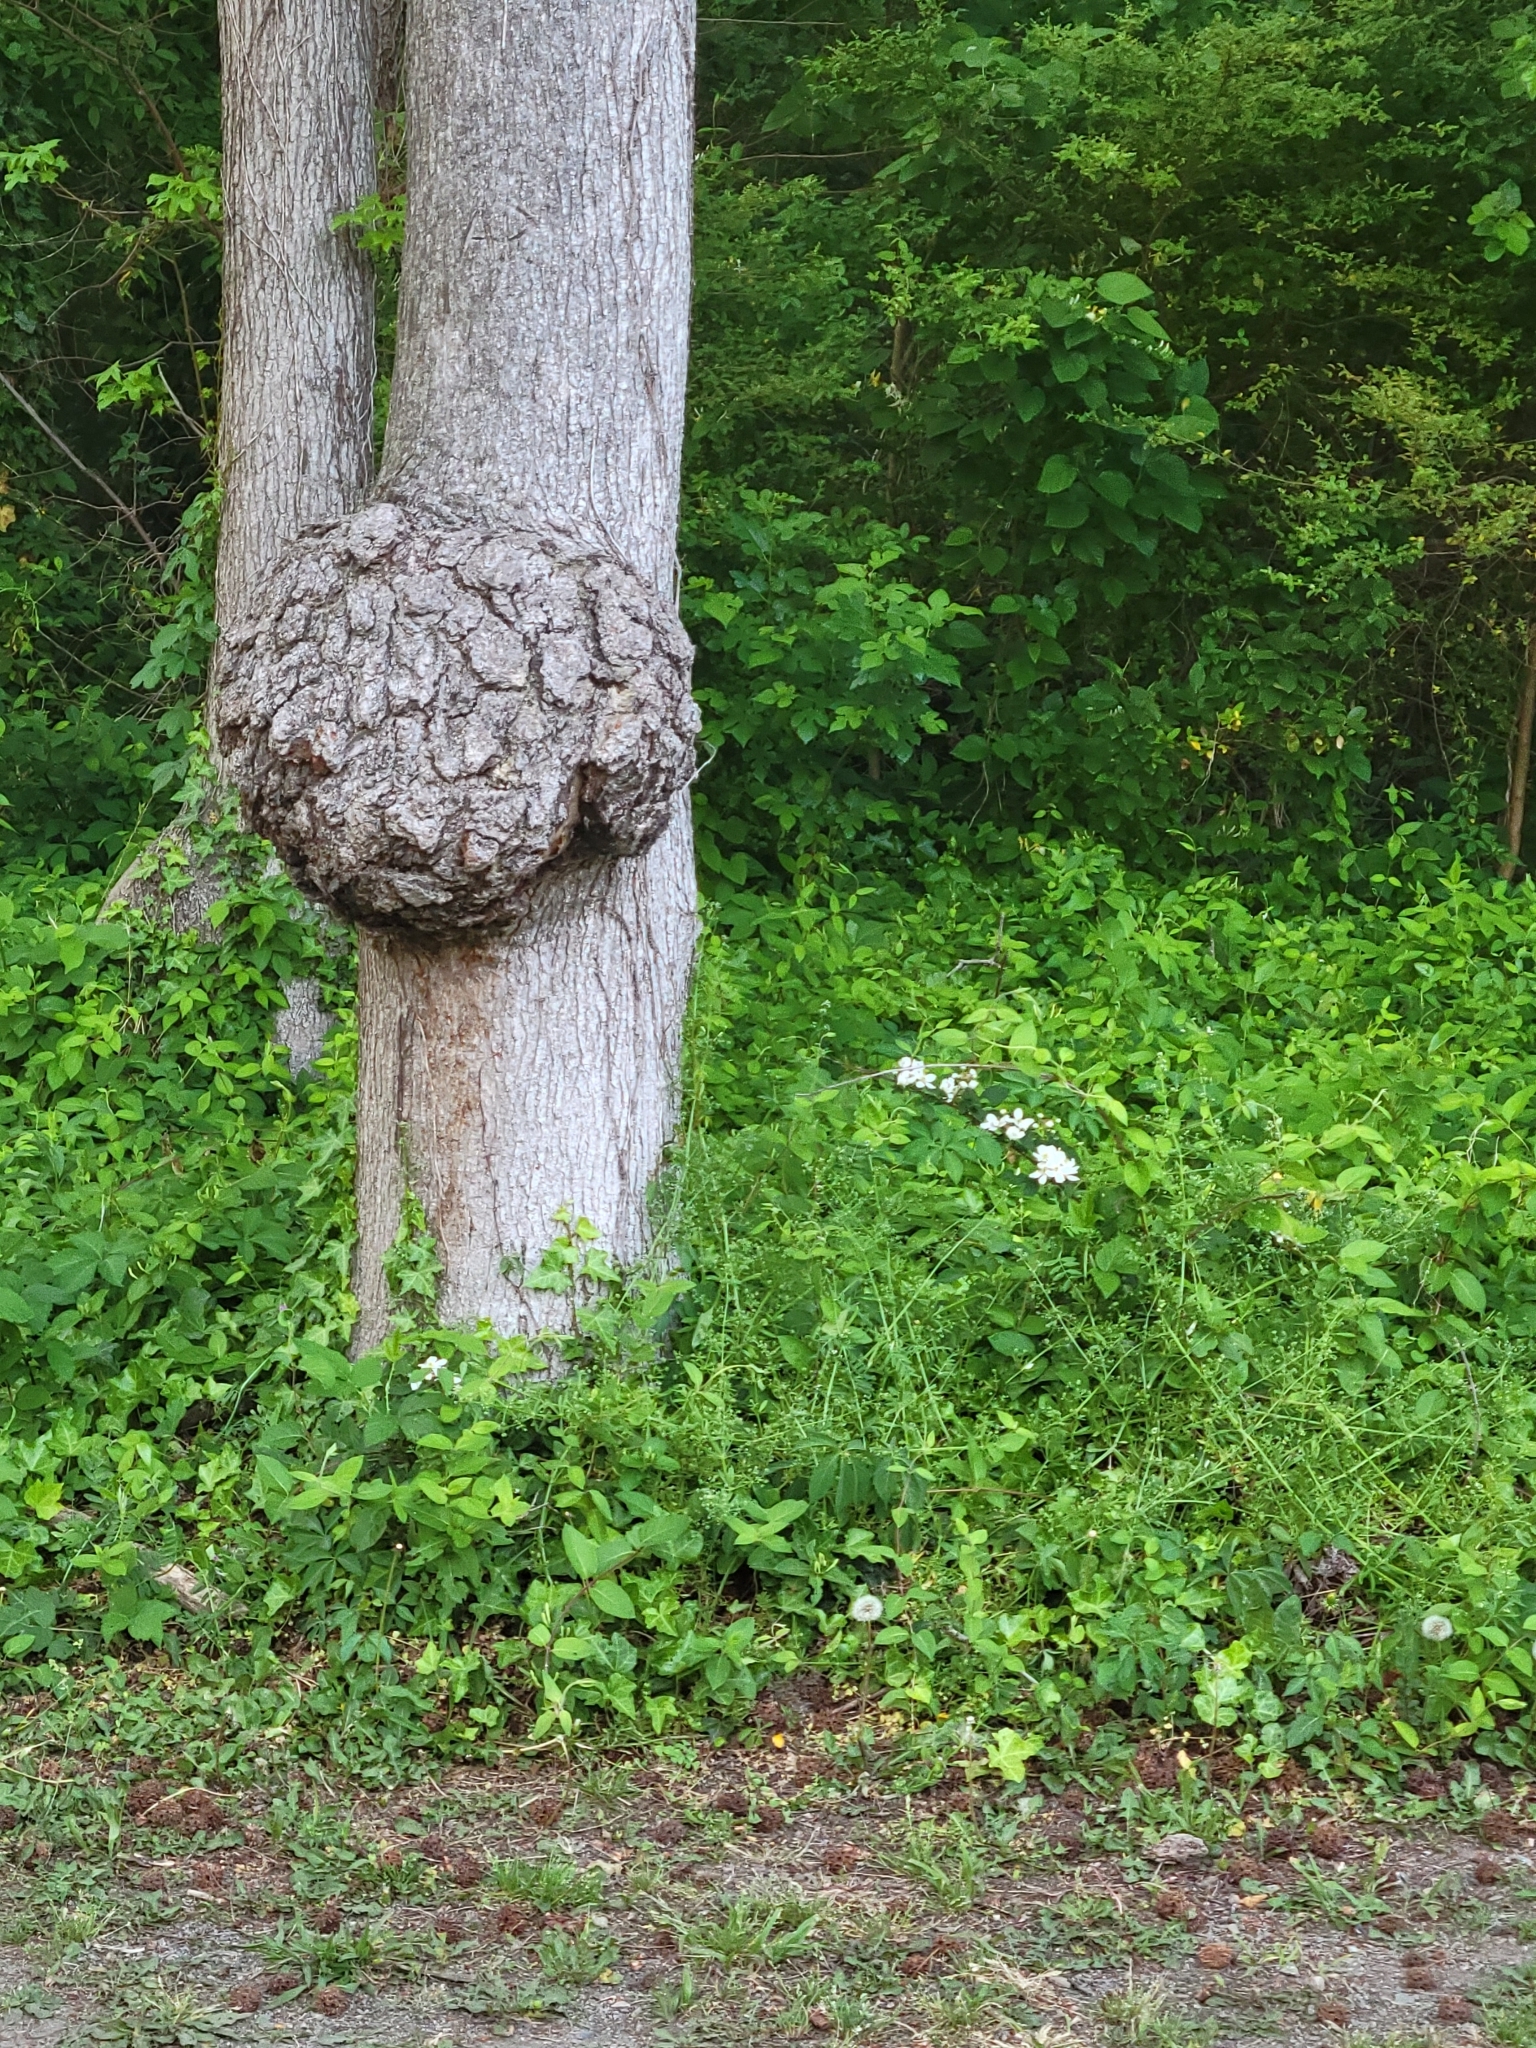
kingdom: Bacteria
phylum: Proteobacteria
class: Alphaproteobacteria
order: Rhizobiales
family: Rhizobiaceae
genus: Rhizobium
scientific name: Rhizobium Agrobacterium radiobacter
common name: Bacterial crown gall
